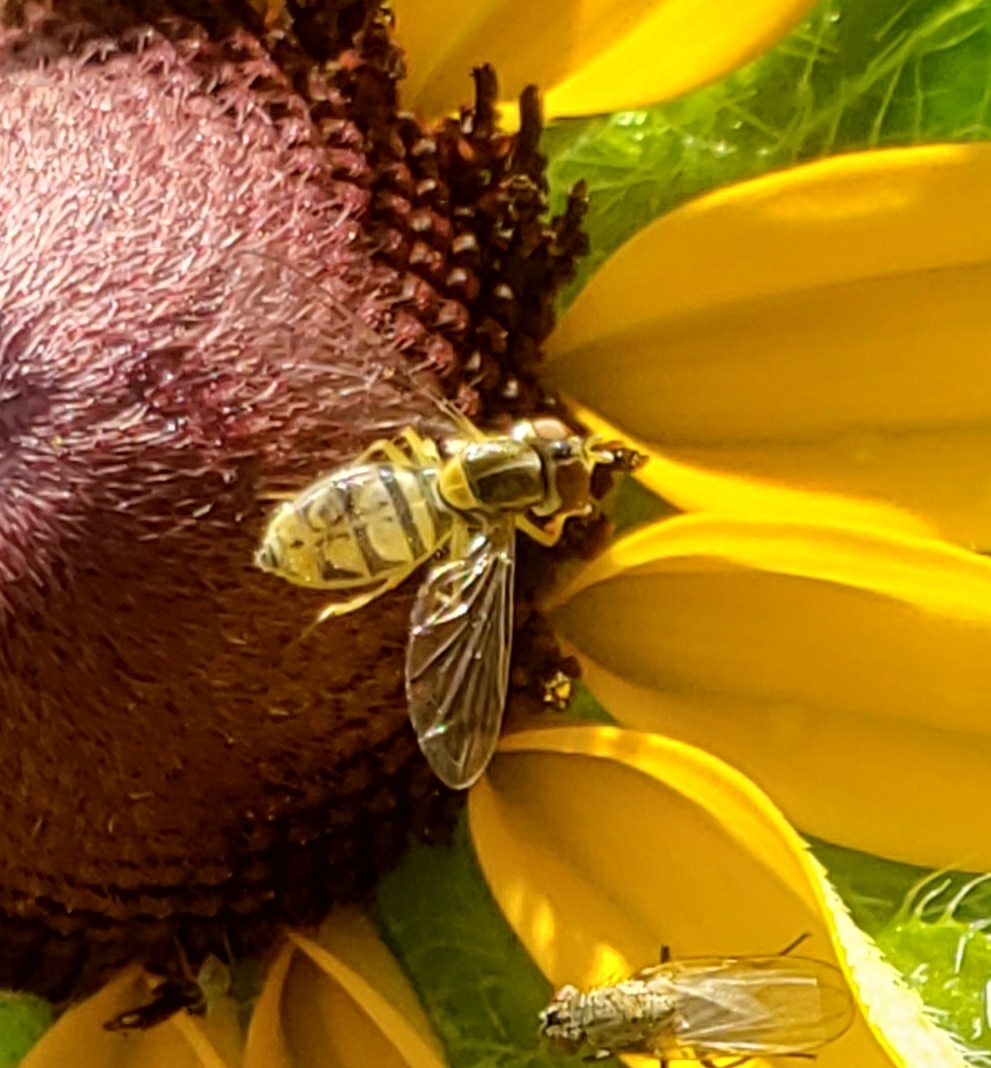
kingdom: Animalia
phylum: Arthropoda
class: Insecta
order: Diptera
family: Syrphidae
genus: Toxomerus
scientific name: Toxomerus marginatus
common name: Syrphid fly
